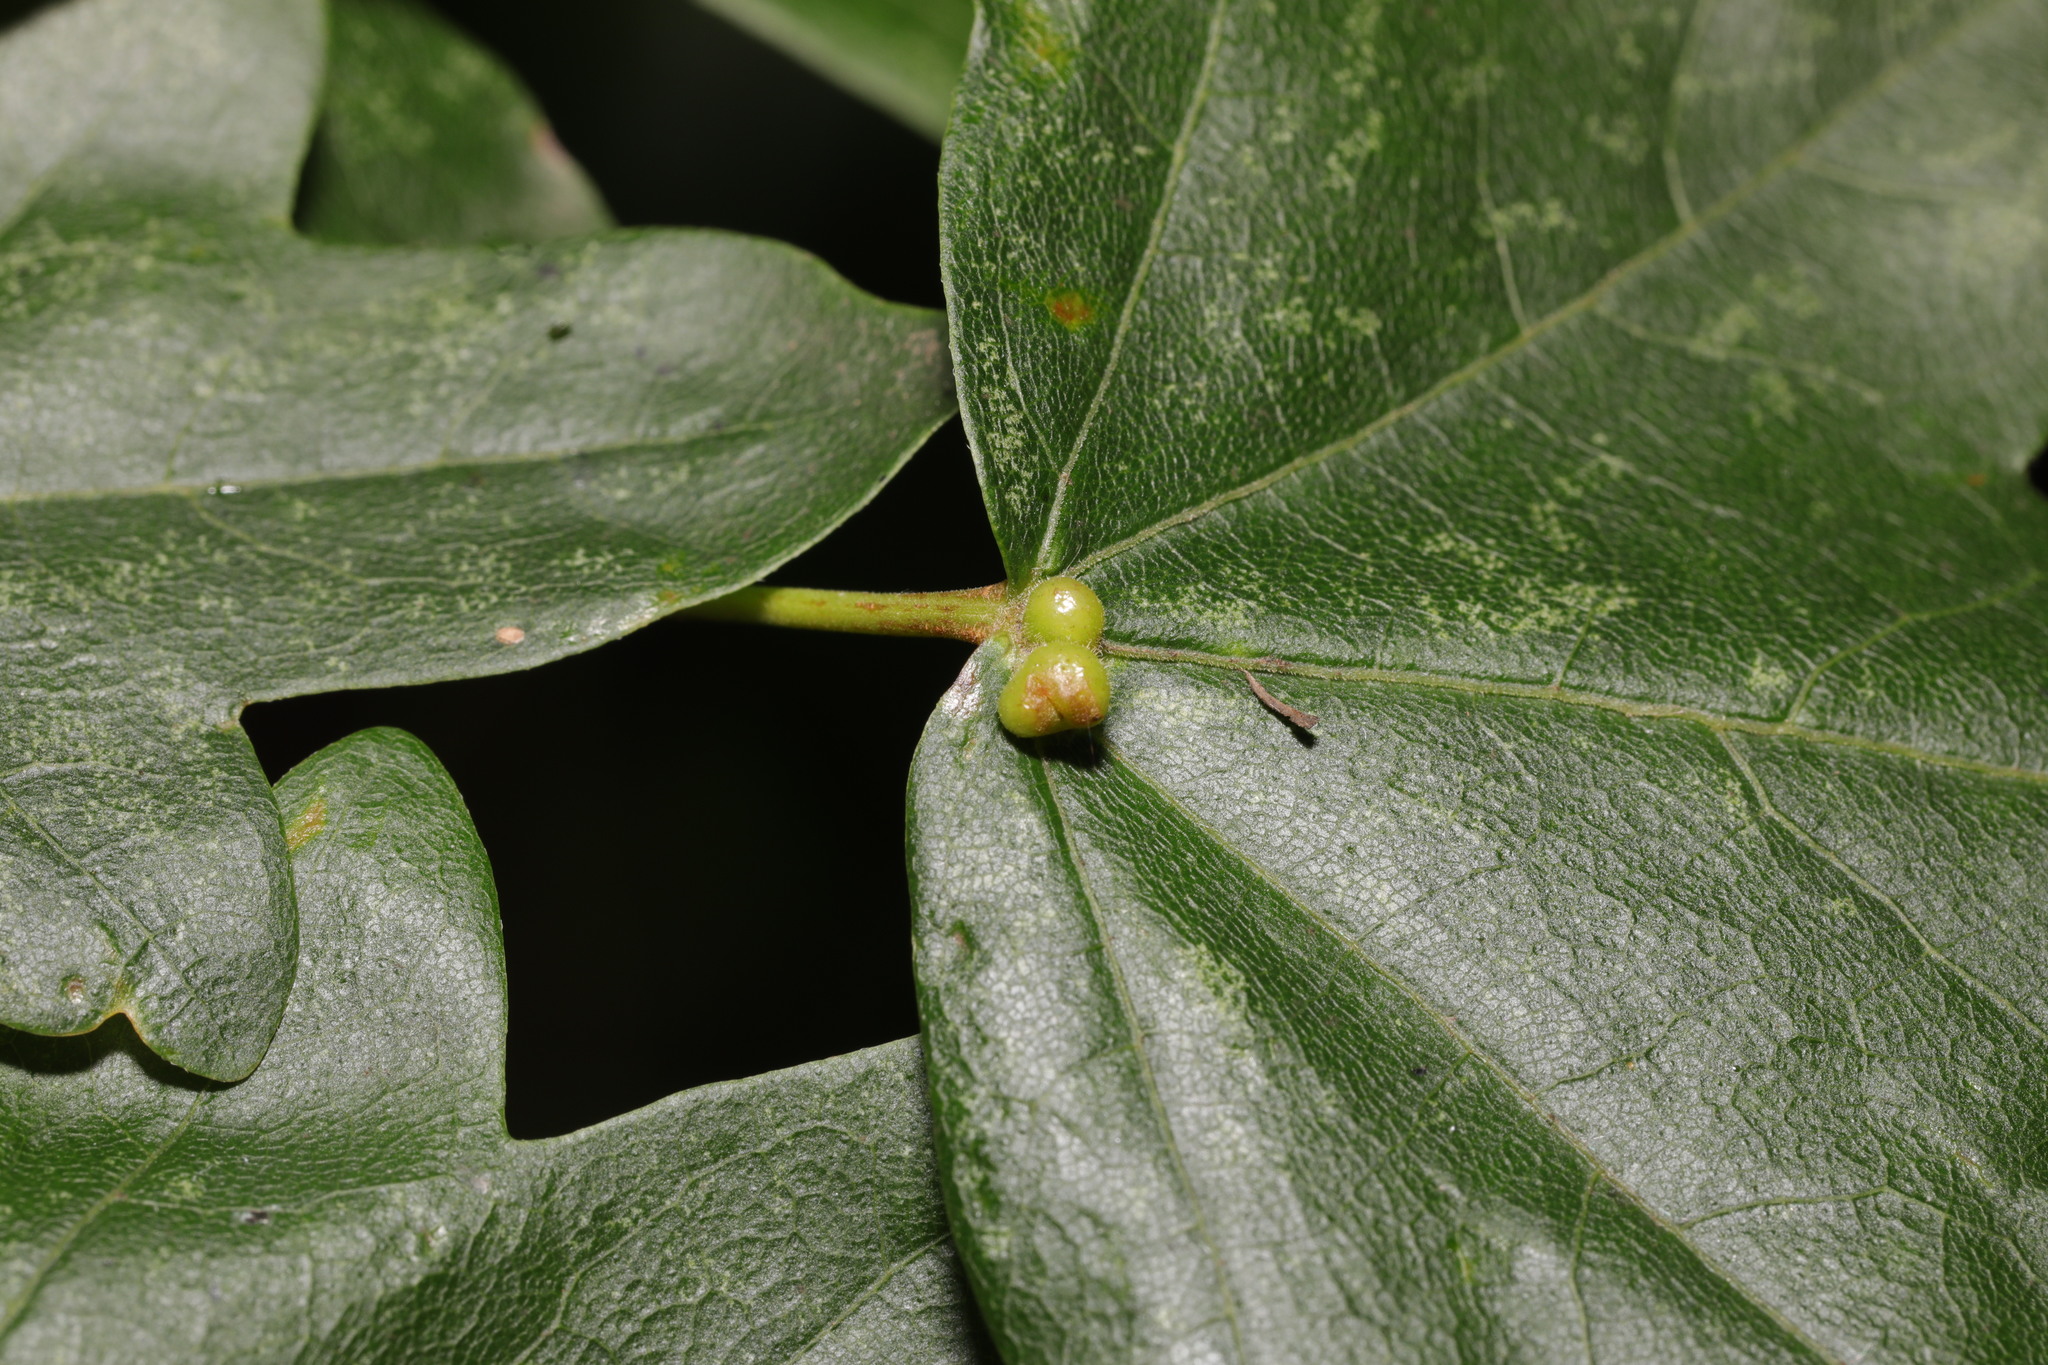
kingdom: Animalia
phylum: Arthropoda
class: Arachnida
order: Trombidiformes
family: Eriophyidae
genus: Aceria
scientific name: Aceria macrochelus
